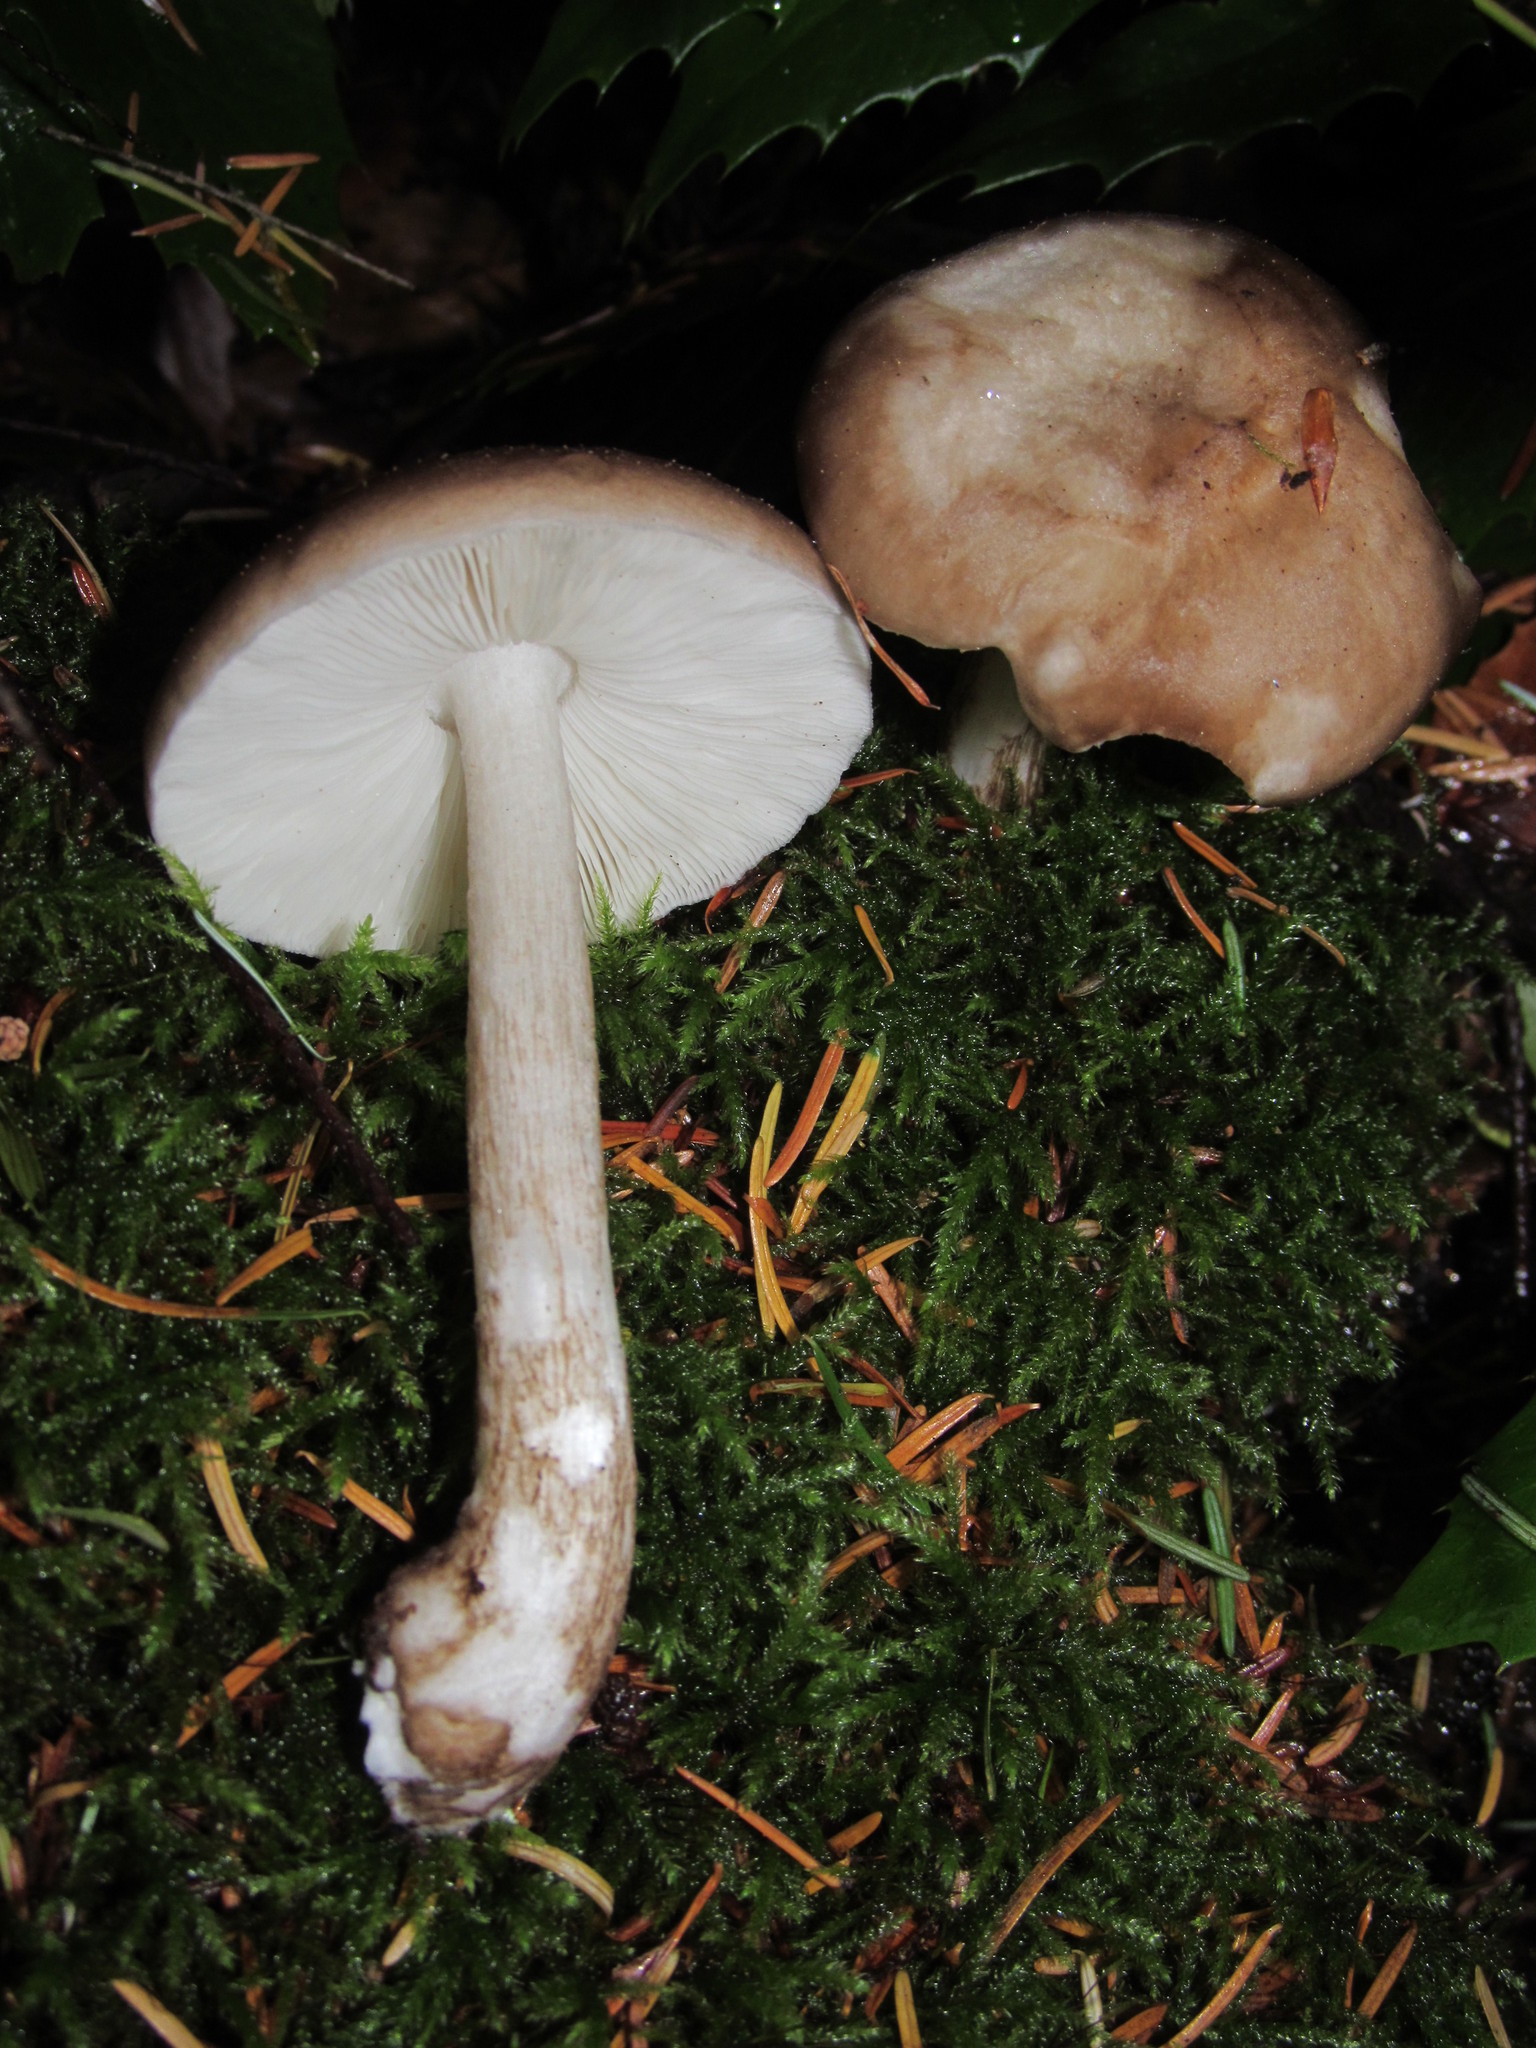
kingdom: Fungi
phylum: Basidiomycota
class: Agaricomycetes
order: Agaricales
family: Pluteaceae
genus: Pluteus
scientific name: Pluteus cervinus
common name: Deer shield
